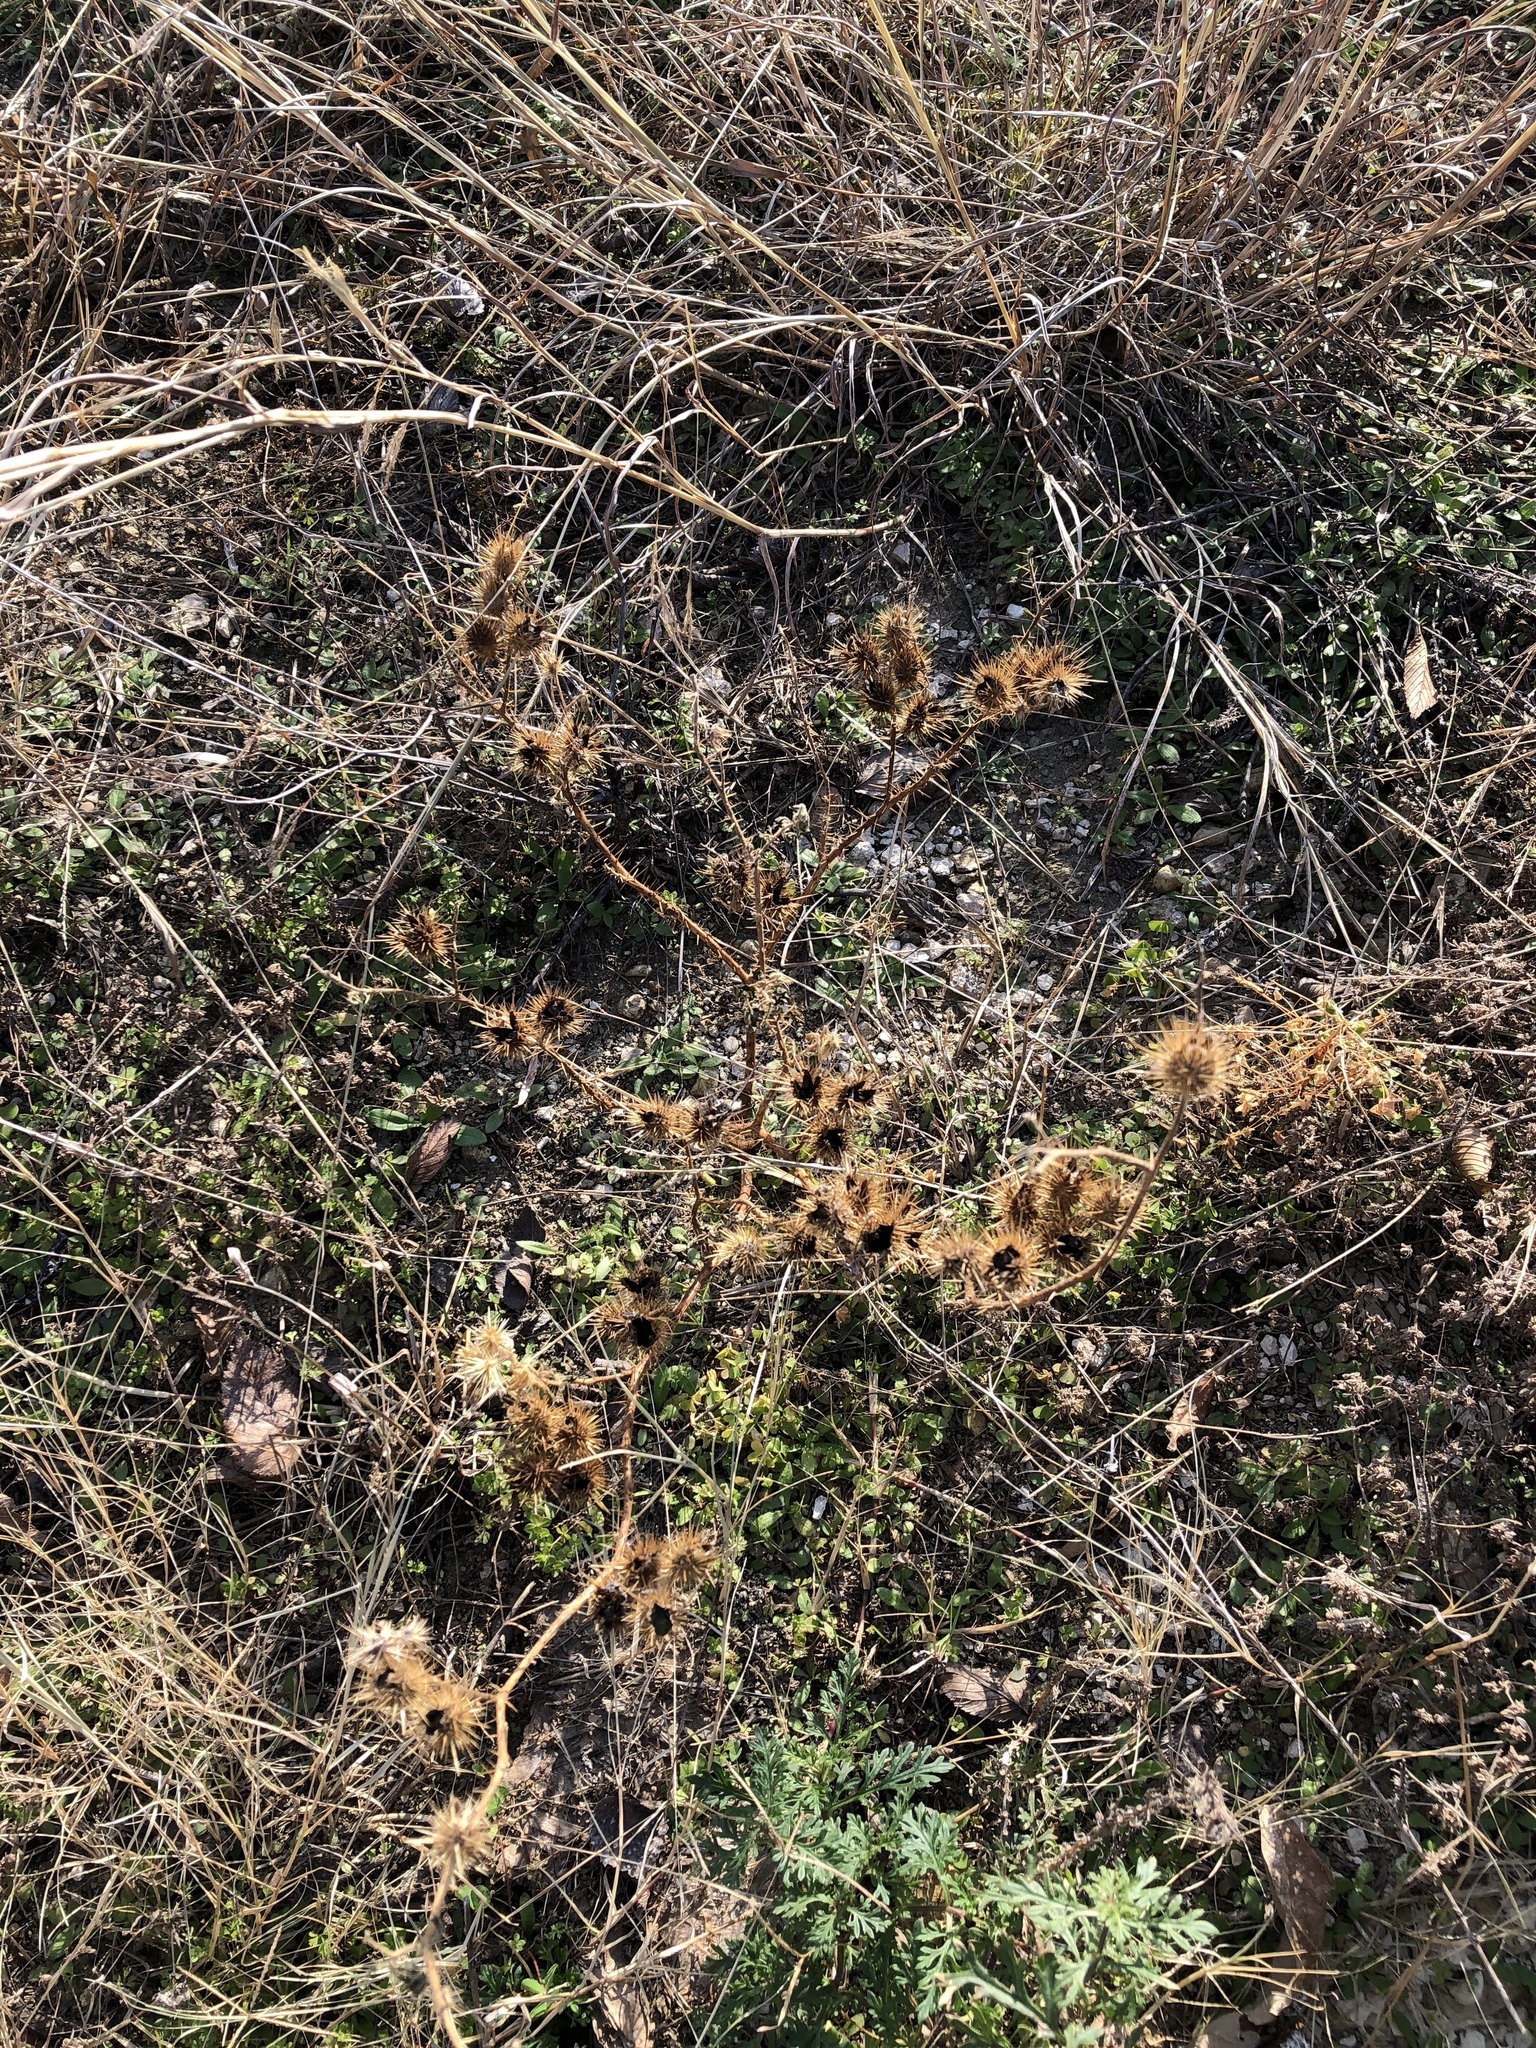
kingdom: Plantae
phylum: Tracheophyta
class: Magnoliopsida
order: Solanales
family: Solanaceae
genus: Solanum
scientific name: Solanum angustifolium
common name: Buffalobur nightshade
